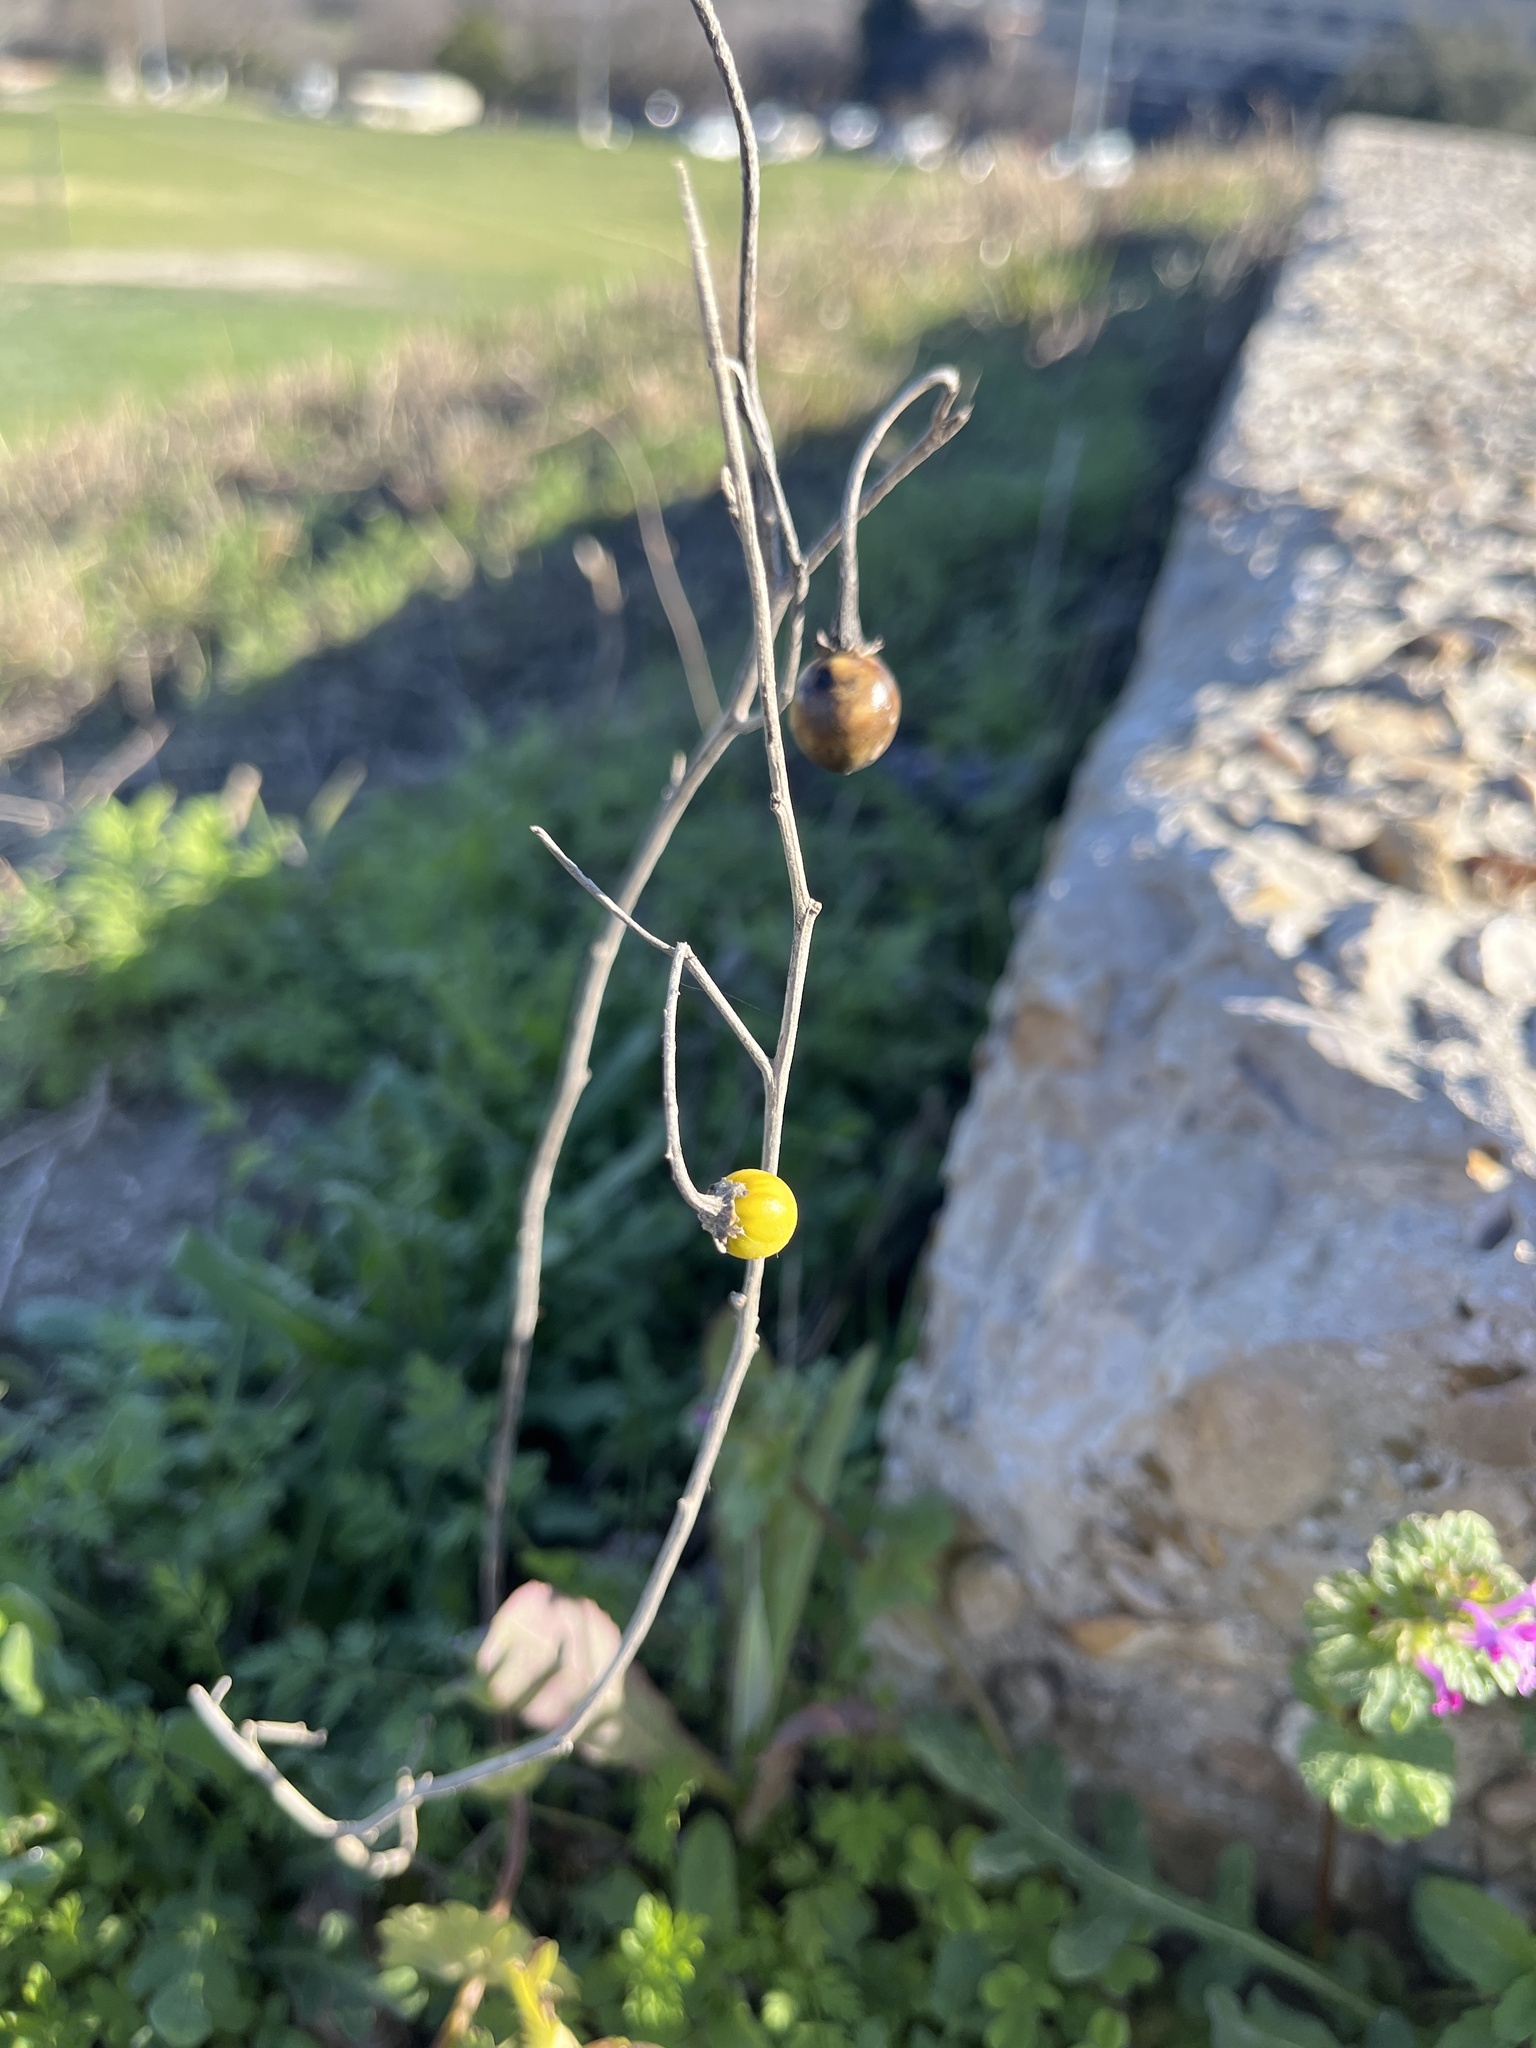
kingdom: Plantae
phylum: Tracheophyta
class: Magnoliopsida
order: Solanales
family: Solanaceae
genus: Solanum
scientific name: Solanum elaeagnifolium
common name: Silverleaf nightshade
